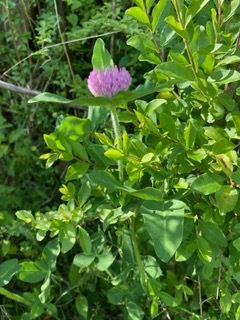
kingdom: Plantae
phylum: Tracheophyta
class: Magnoliopsida
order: Fabales
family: Fabaceae
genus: Trifolium
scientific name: Trifolium pratense
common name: Red clover
